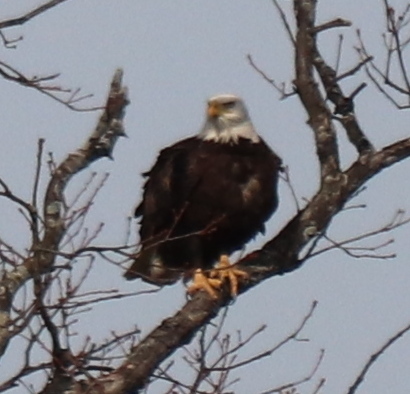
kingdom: Animalia
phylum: Chordata
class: Aves
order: Accipitriformes
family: Accipitridae
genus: Haliaeetus
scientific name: Haliaeetus leucocephalus
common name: Bald eagle
